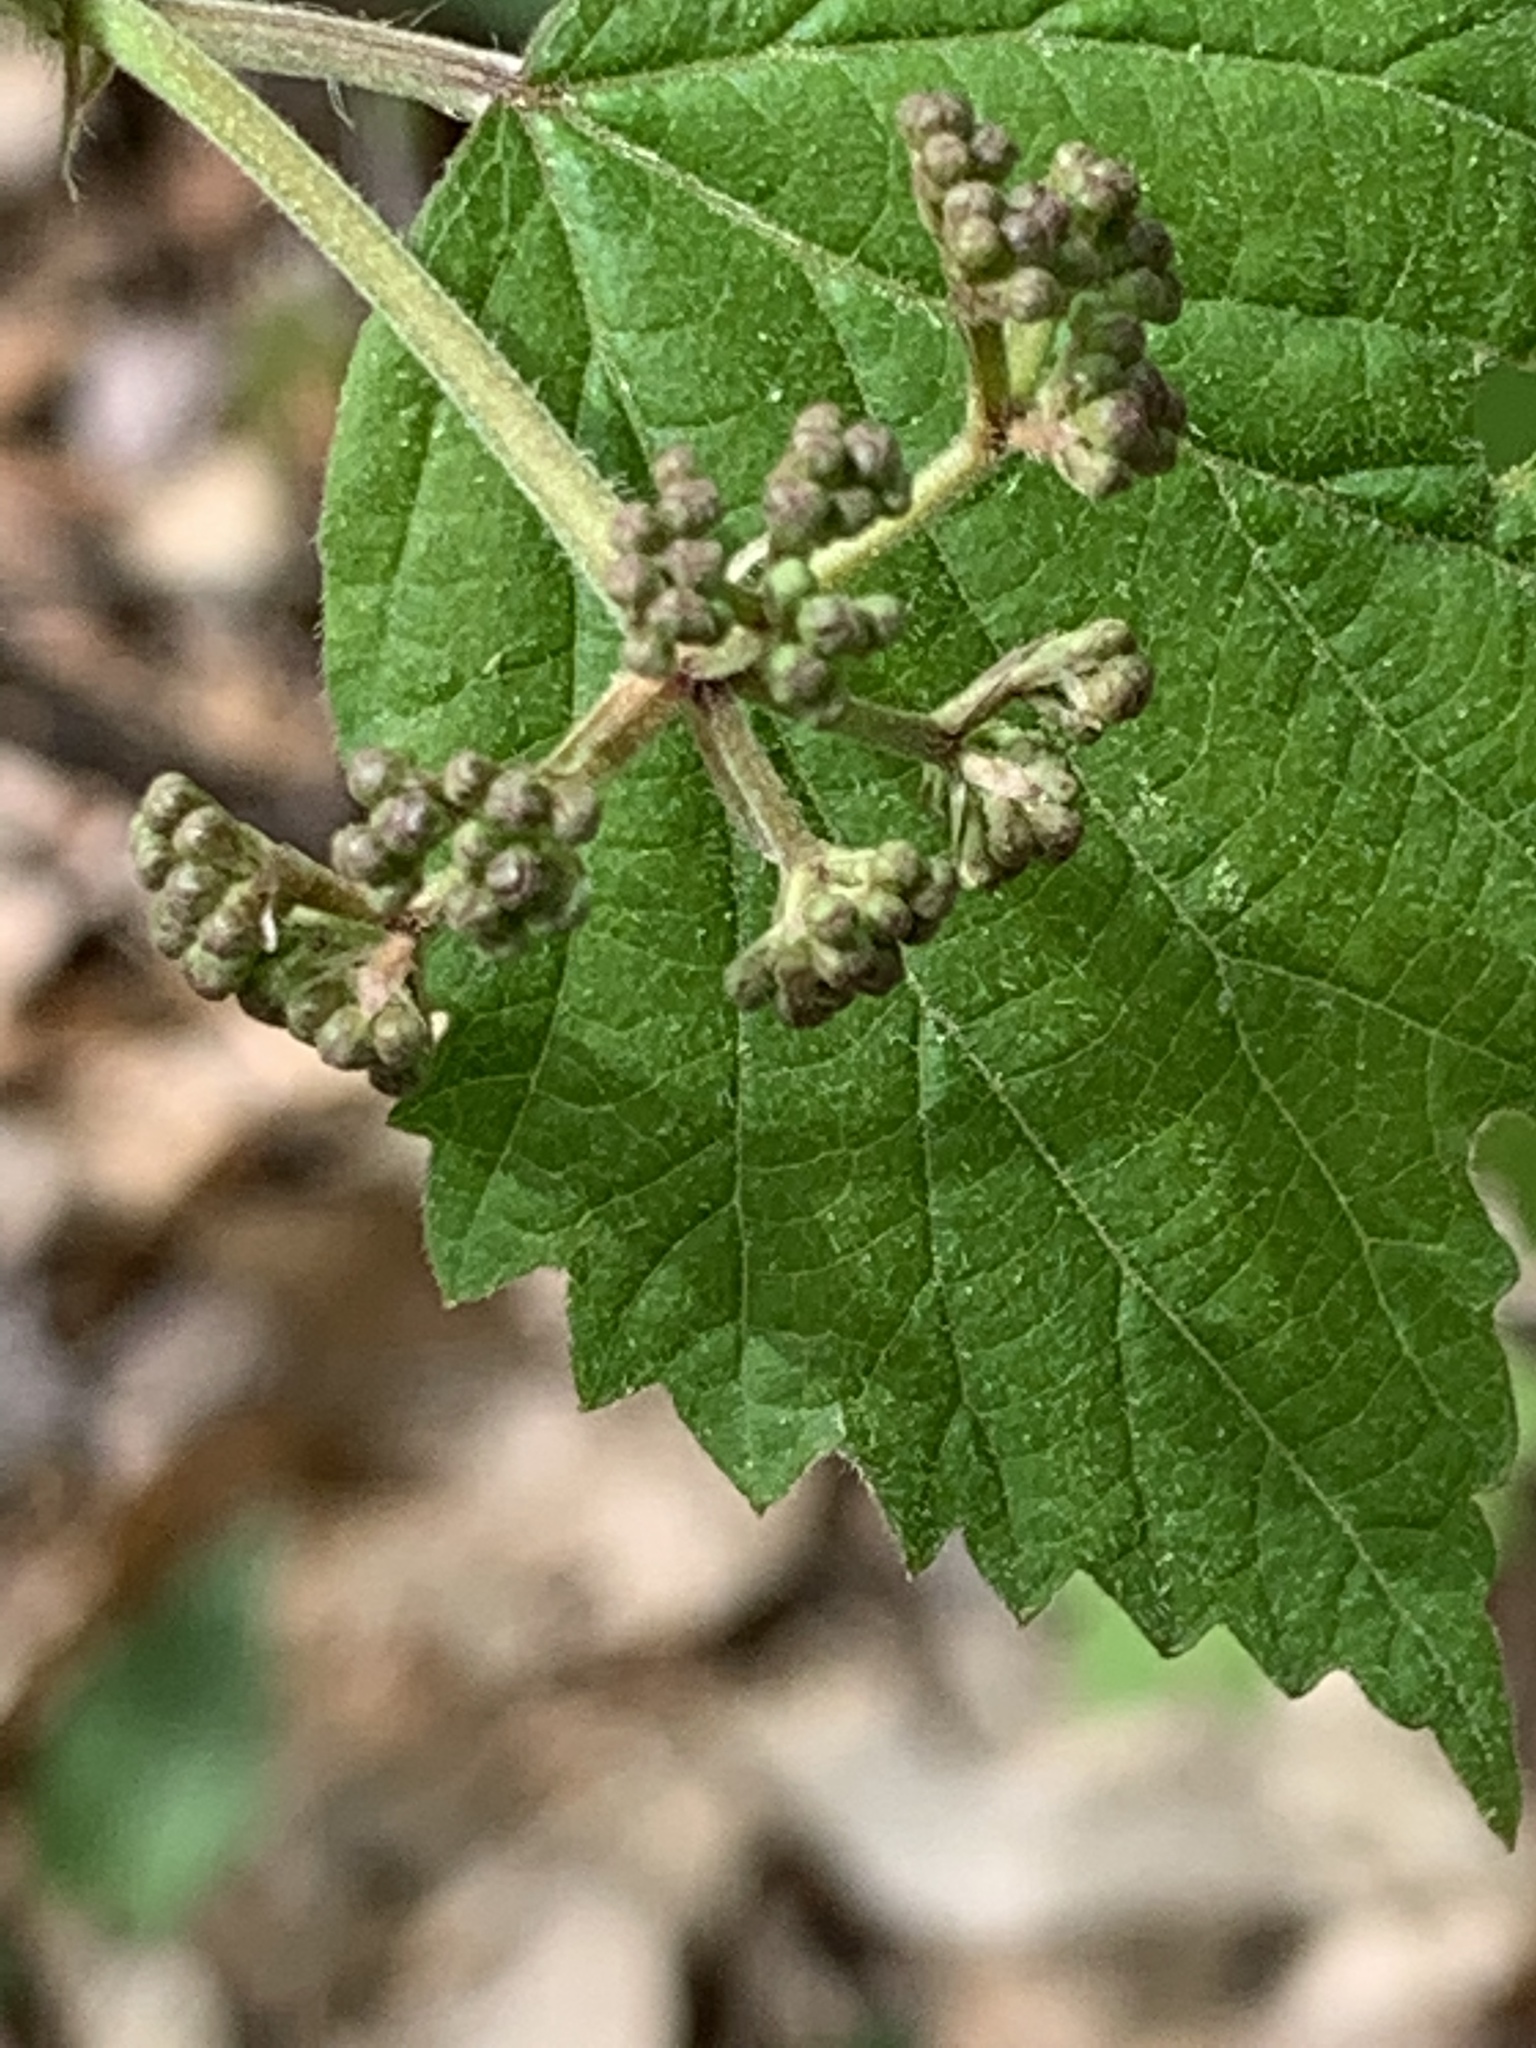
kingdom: Plantae
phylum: Tracheophyta
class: Magnoliopsida
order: Dipsacales
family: Viburnaceae
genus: Viburnum
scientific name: Viburnum acerifolium
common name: Dockmackie
